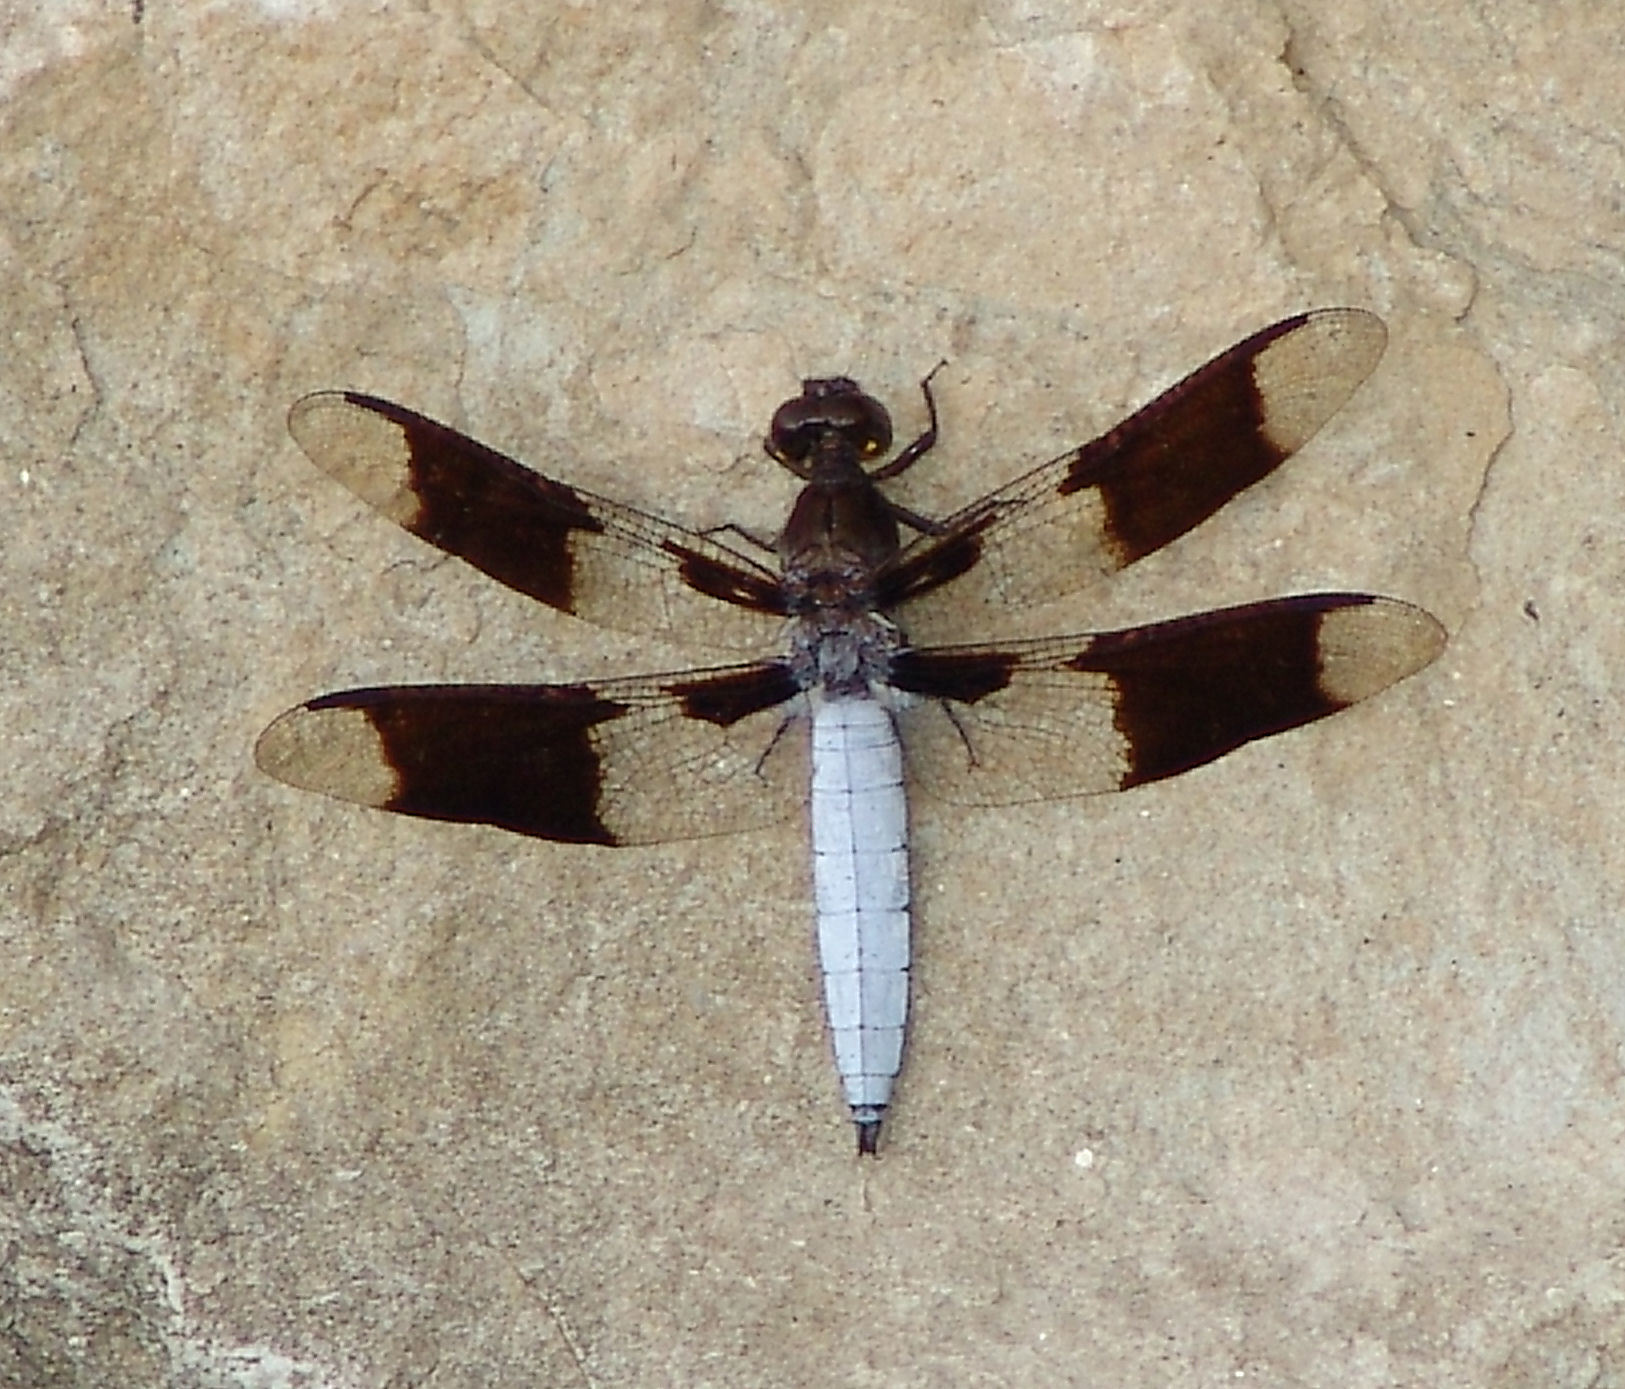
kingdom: Animalia
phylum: Arthropoda
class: Insecta
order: Odonata
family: Libellulidae
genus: Plathemis
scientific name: Plathemis lydia
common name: Common whitetail
